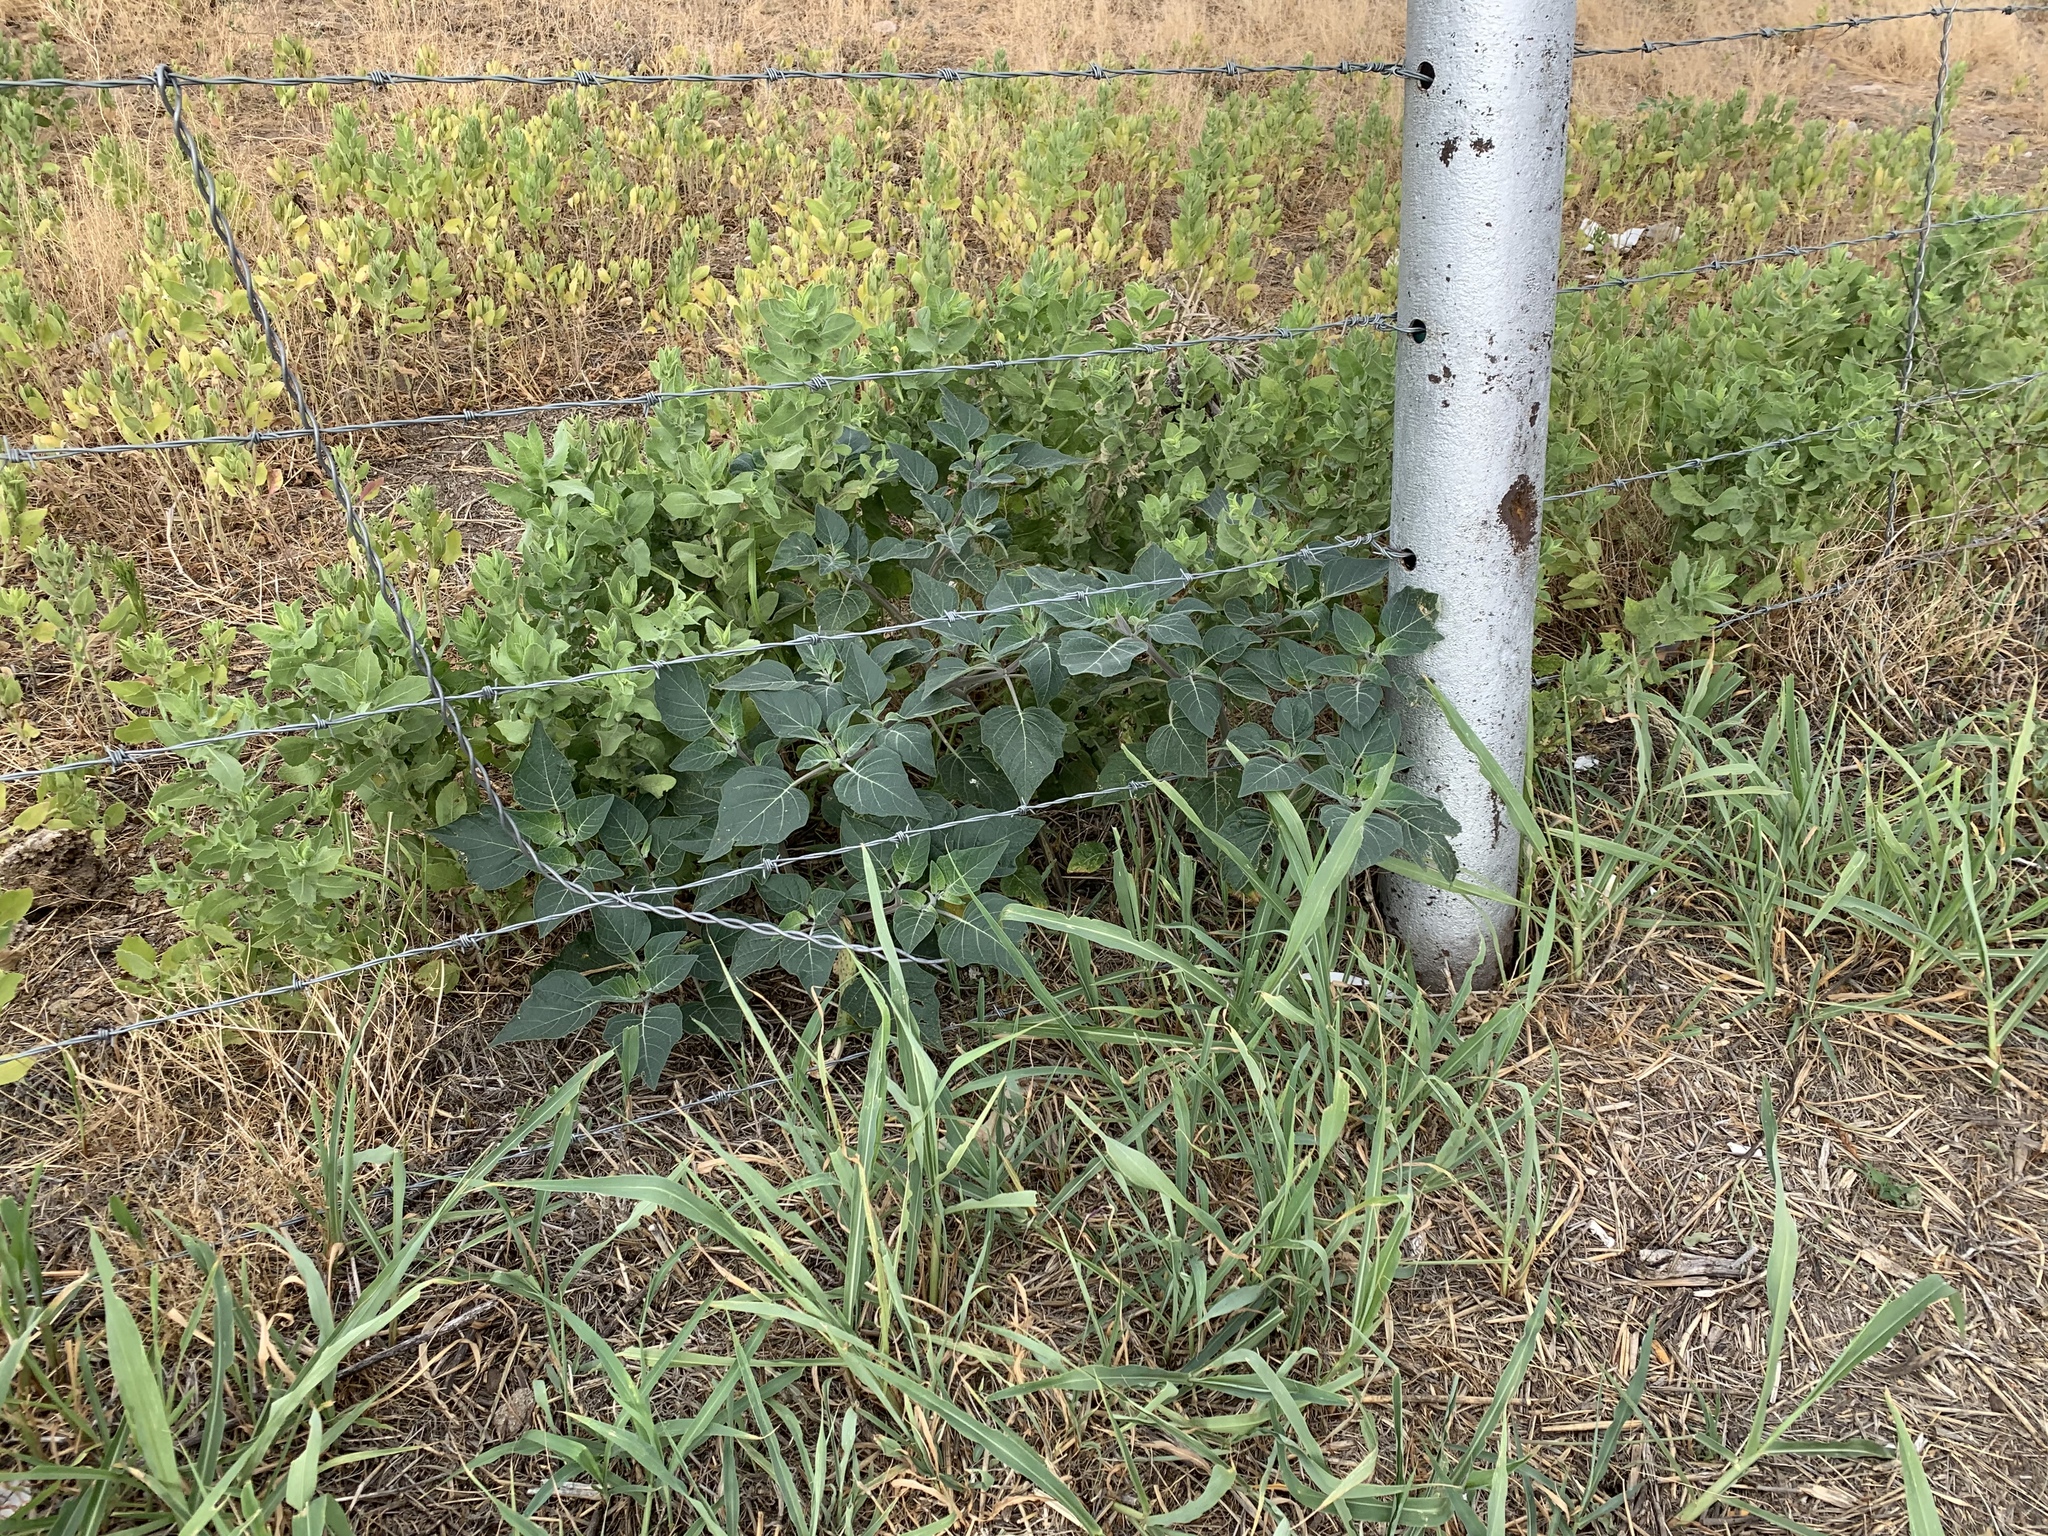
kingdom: Plantae
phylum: Tracheophyta
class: Magnoliopsida
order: Solanales
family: Solanaceae
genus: Datura
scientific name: Datura wrightii
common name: Sacred thorn-apple
